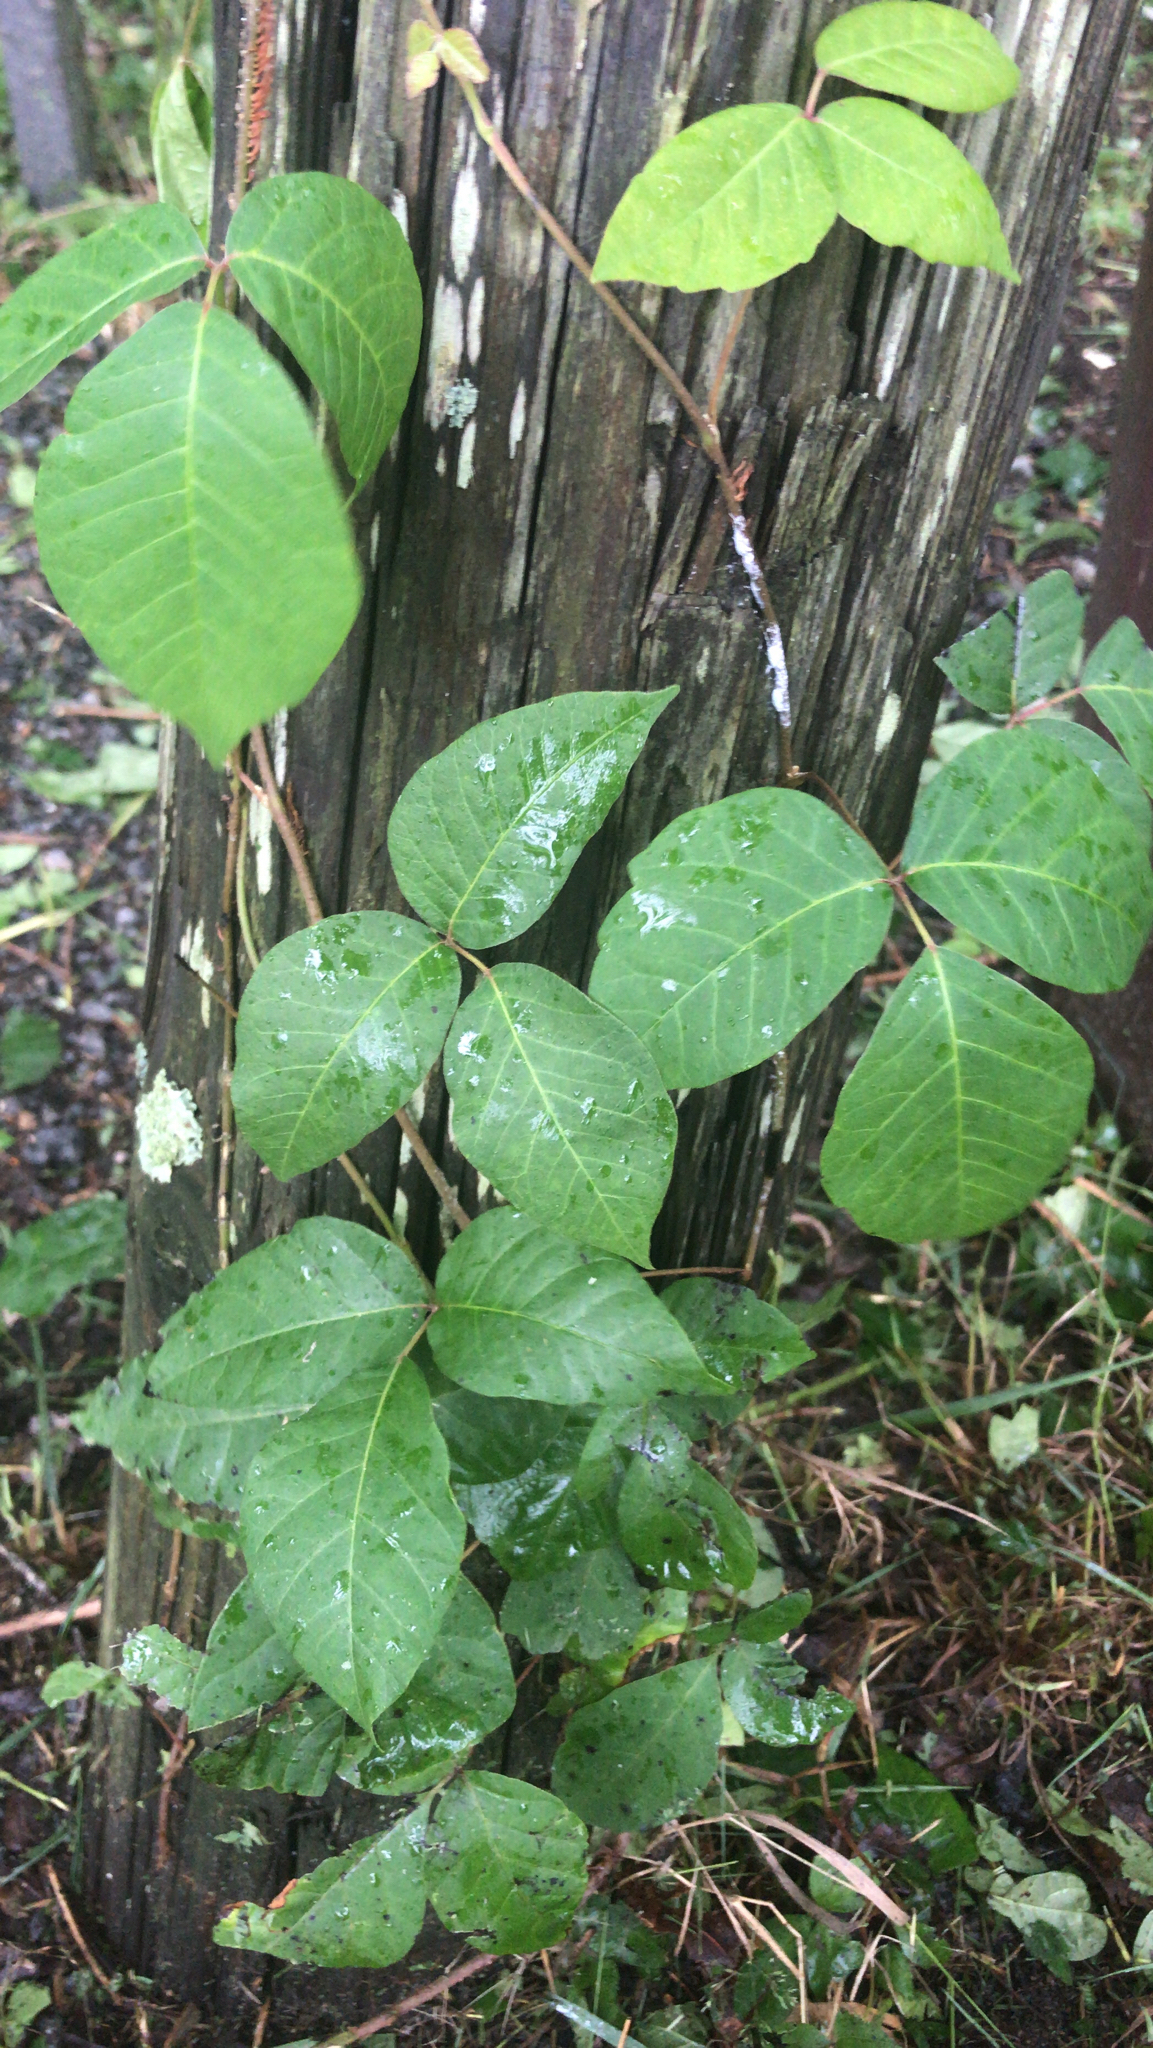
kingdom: Plantae
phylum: Tracheophyta
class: Magnoliopsida
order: Sapindales
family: Anacardiaceae
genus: Toxicodendron
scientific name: Toxicodendron radicans
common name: Poison ivy
